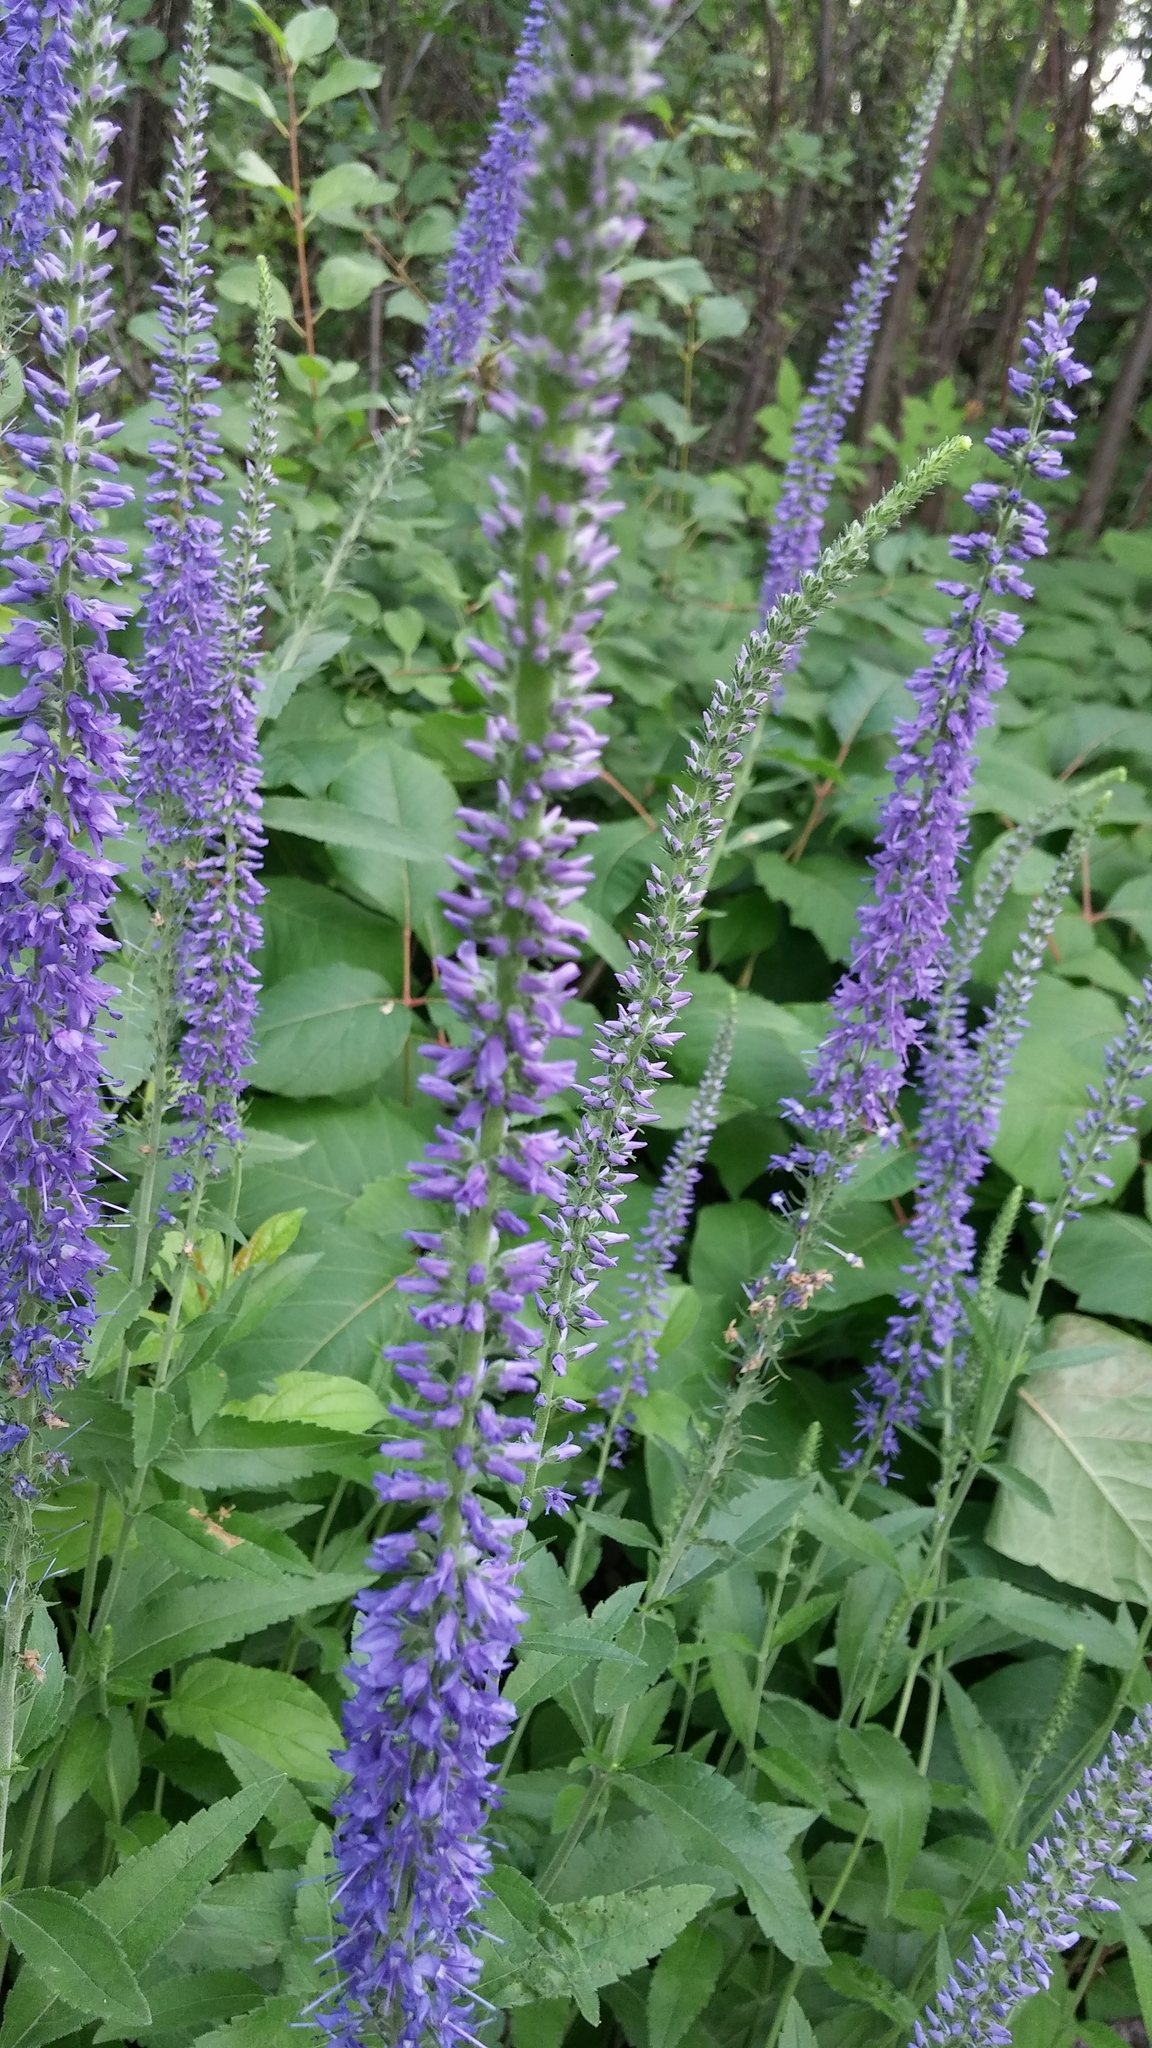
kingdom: Plantae
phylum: Tracheophyta
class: Magnoliopsida
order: Lamiales
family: Plantaginaceae
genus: Veronica
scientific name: Veronica longifolia
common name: Garden speedwell
